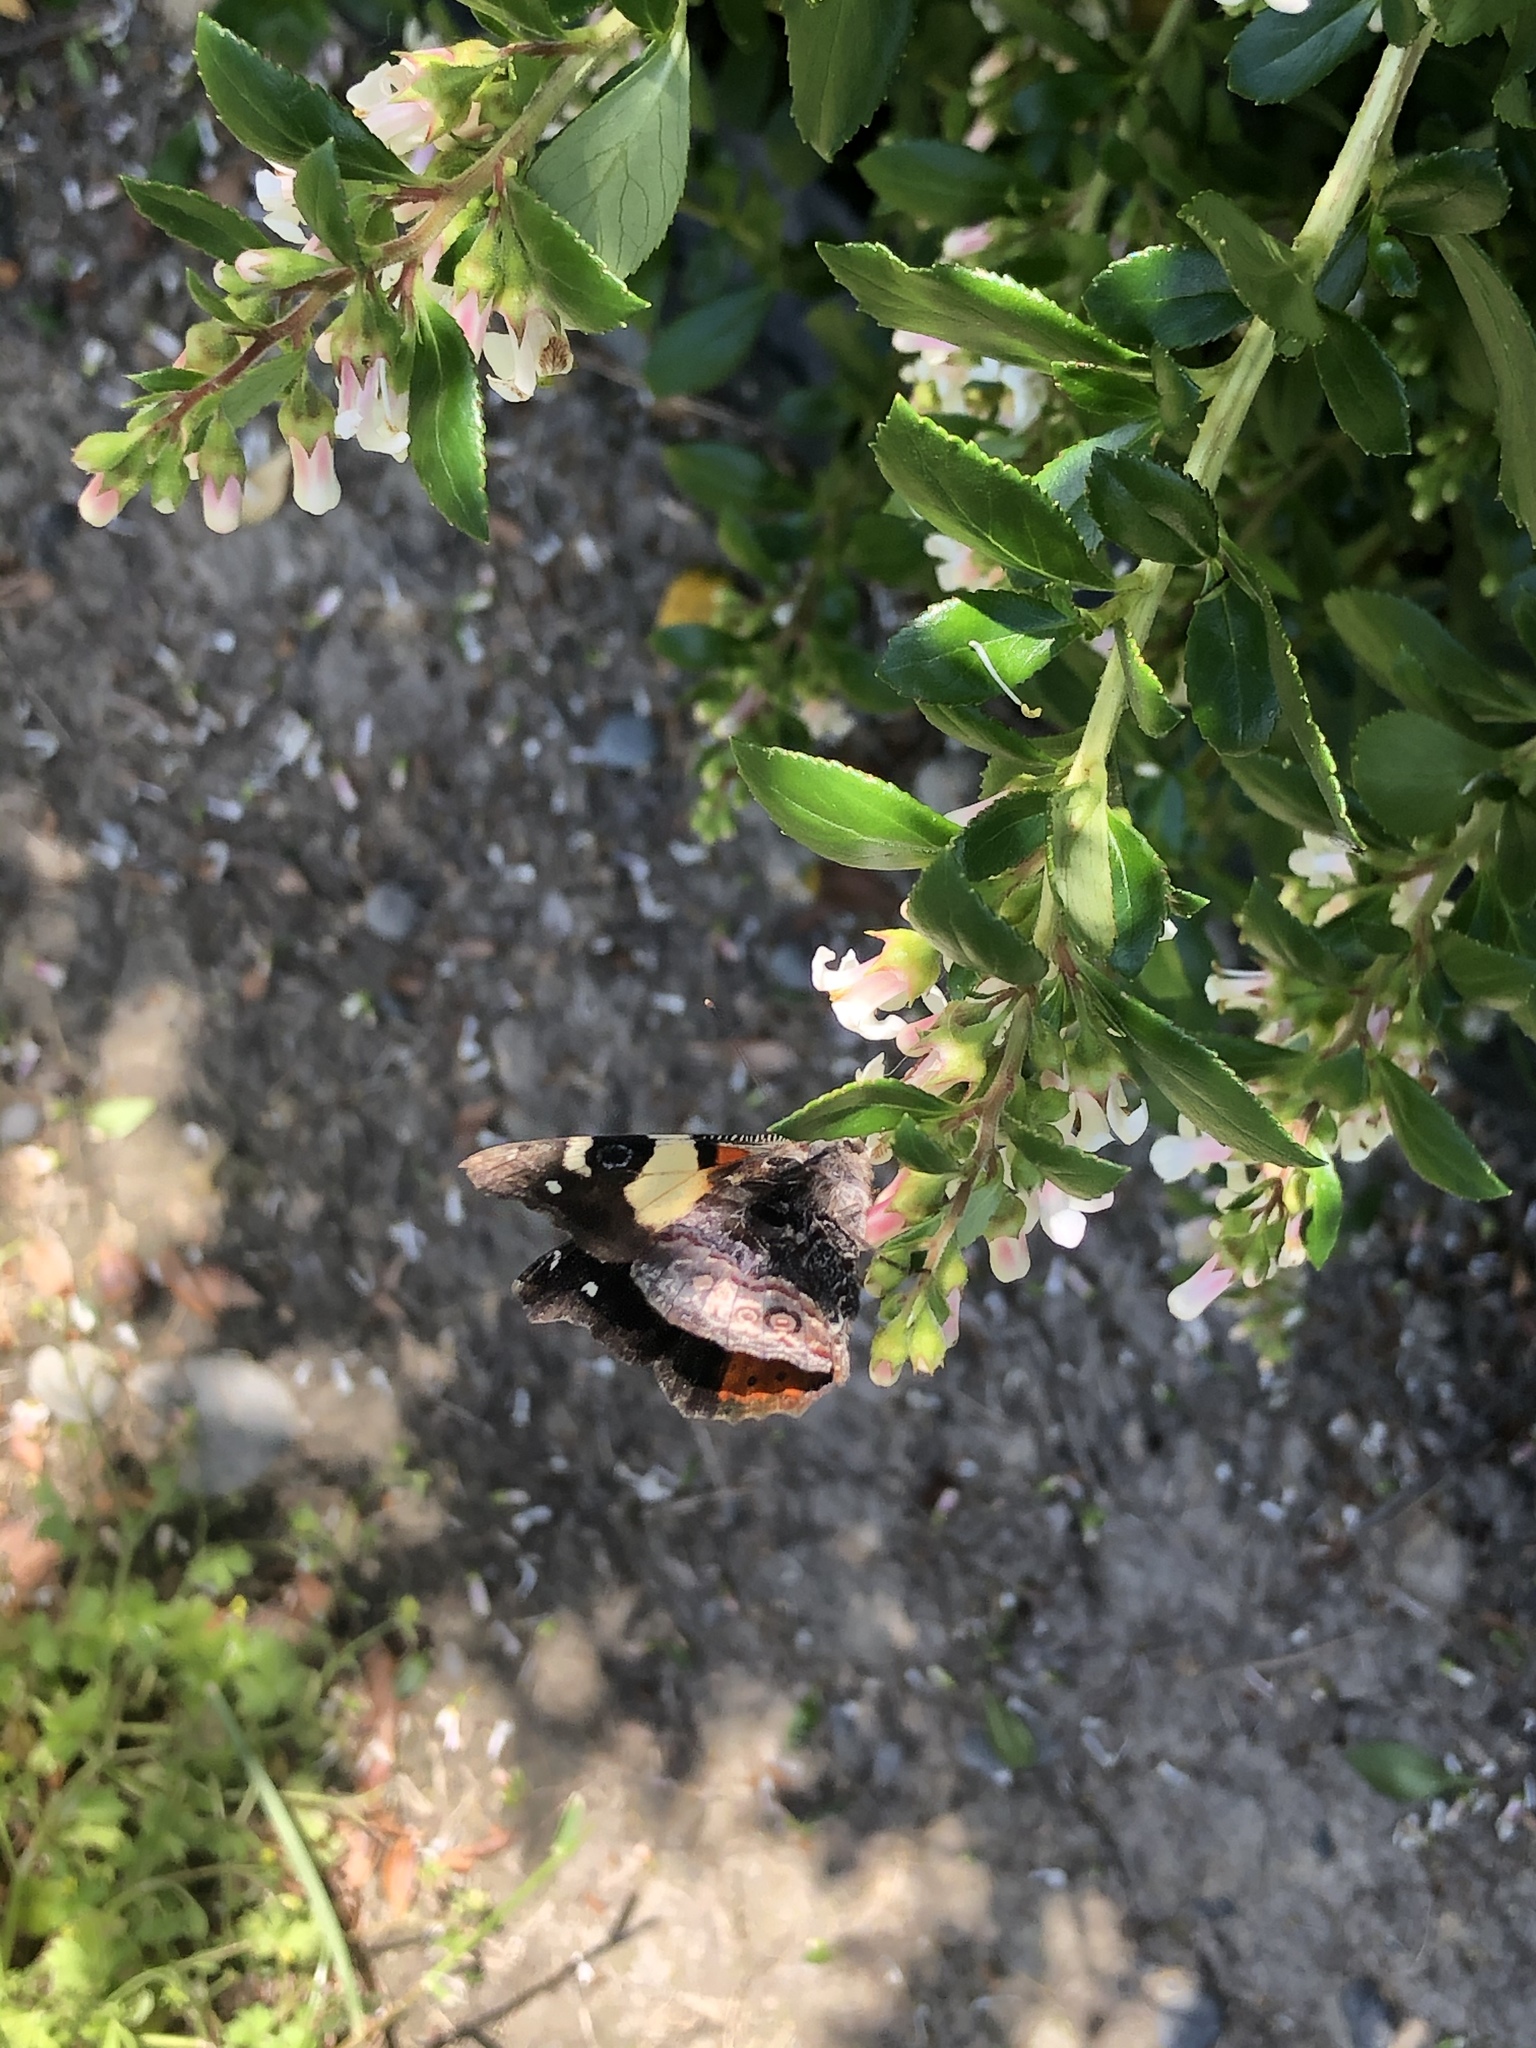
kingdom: Animalia
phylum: Arthropoda
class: Insecta
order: Lepidoptera
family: Nymphalidae
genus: Vanessa
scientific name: Vanessa itea
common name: Yellow admiral
